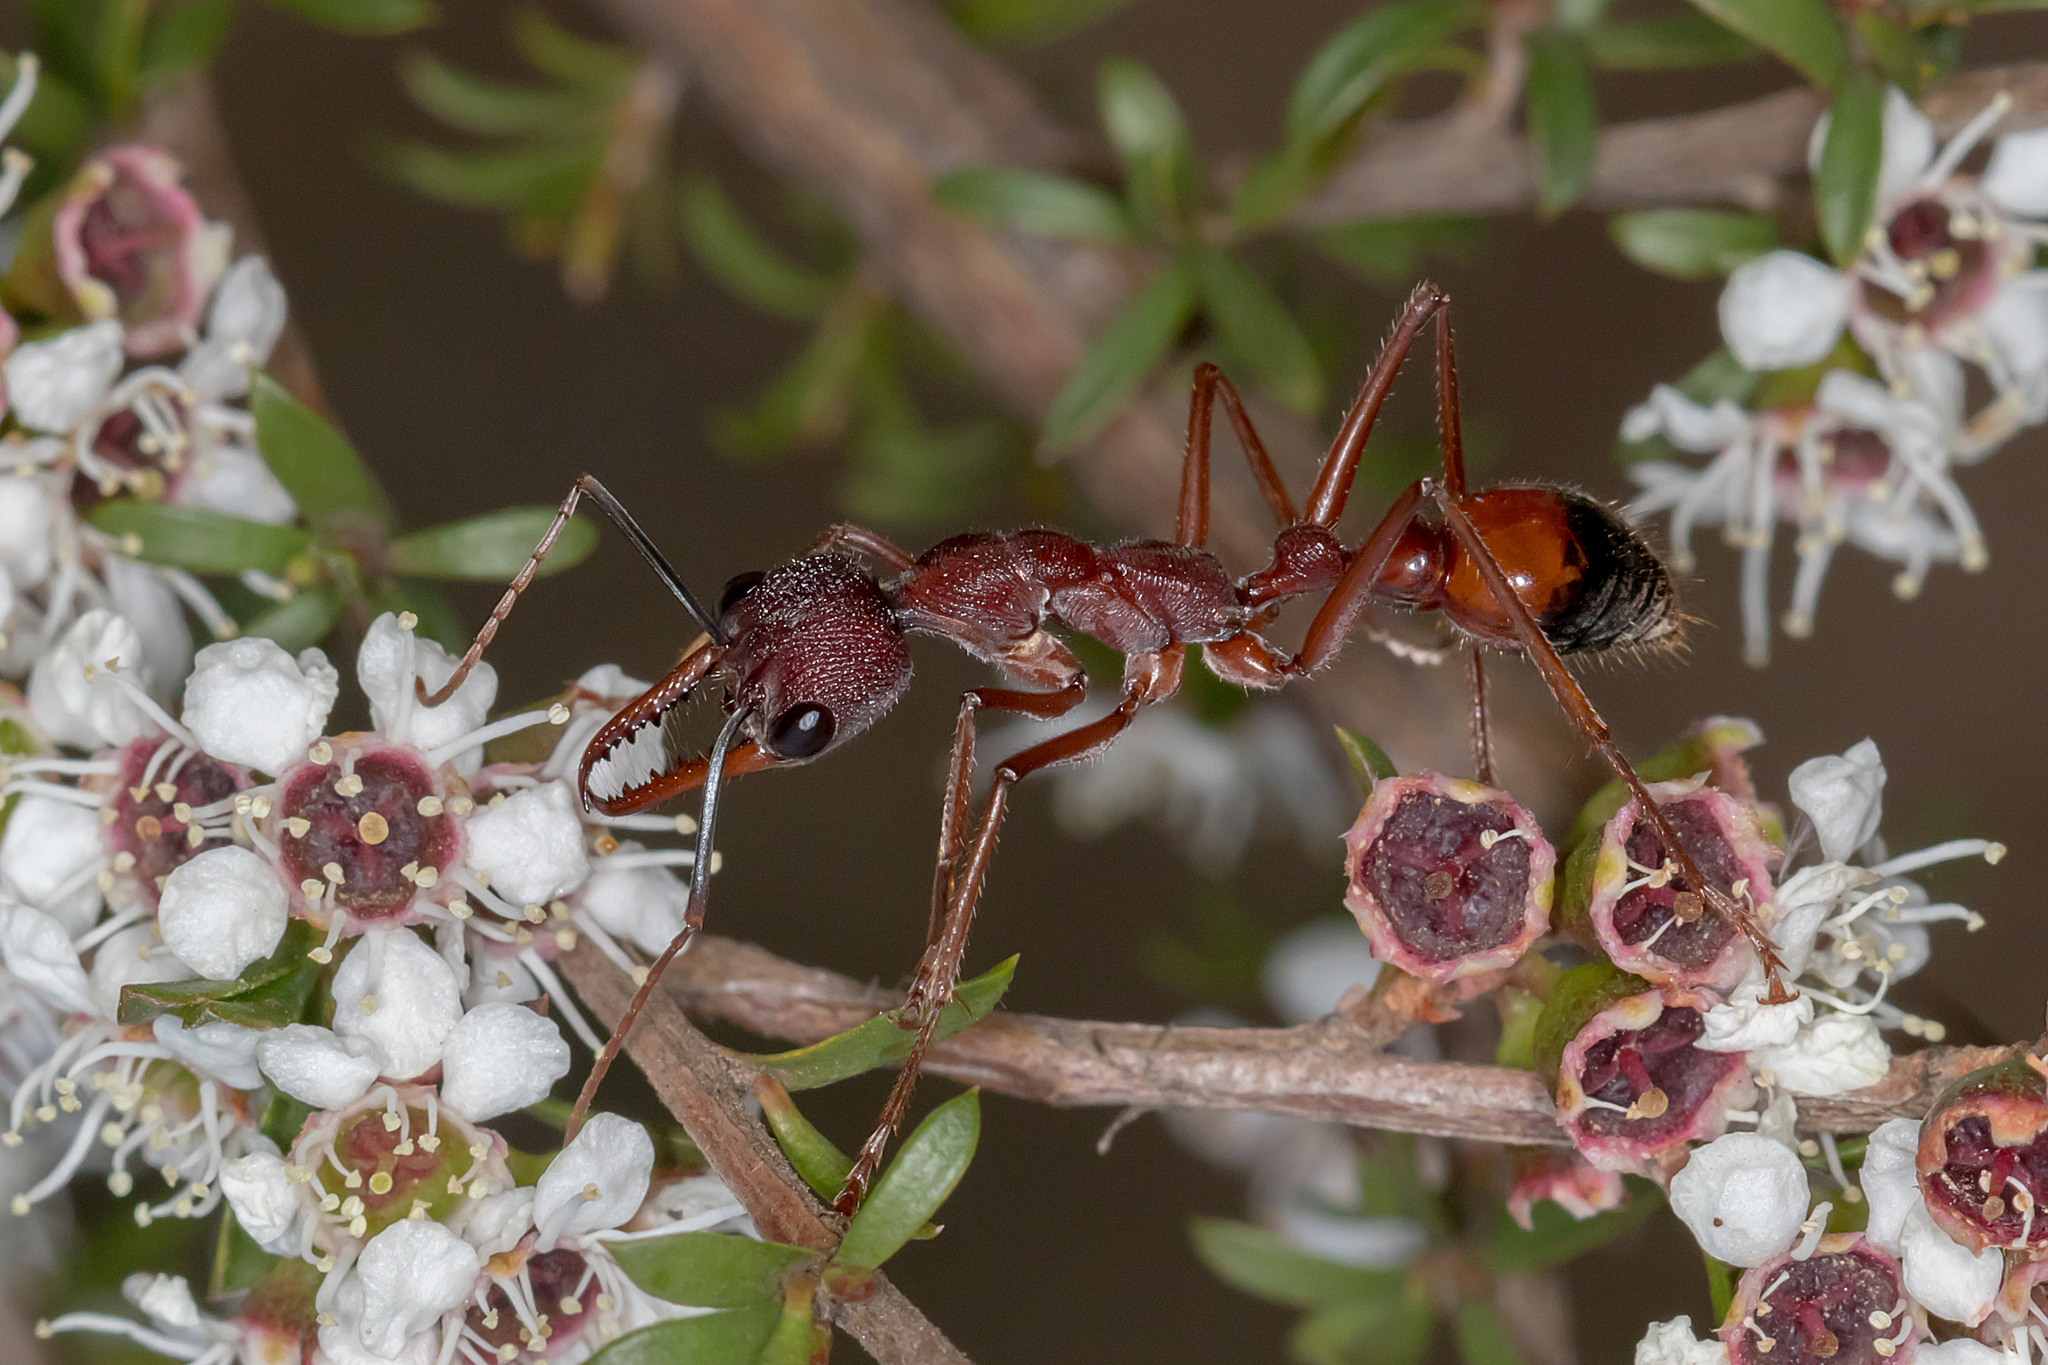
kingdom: Animalia
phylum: Arthropoda
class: Insecta
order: Hymenoptera
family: Formicidae
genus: Myrmecia
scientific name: Myrmecia nigriscapa
